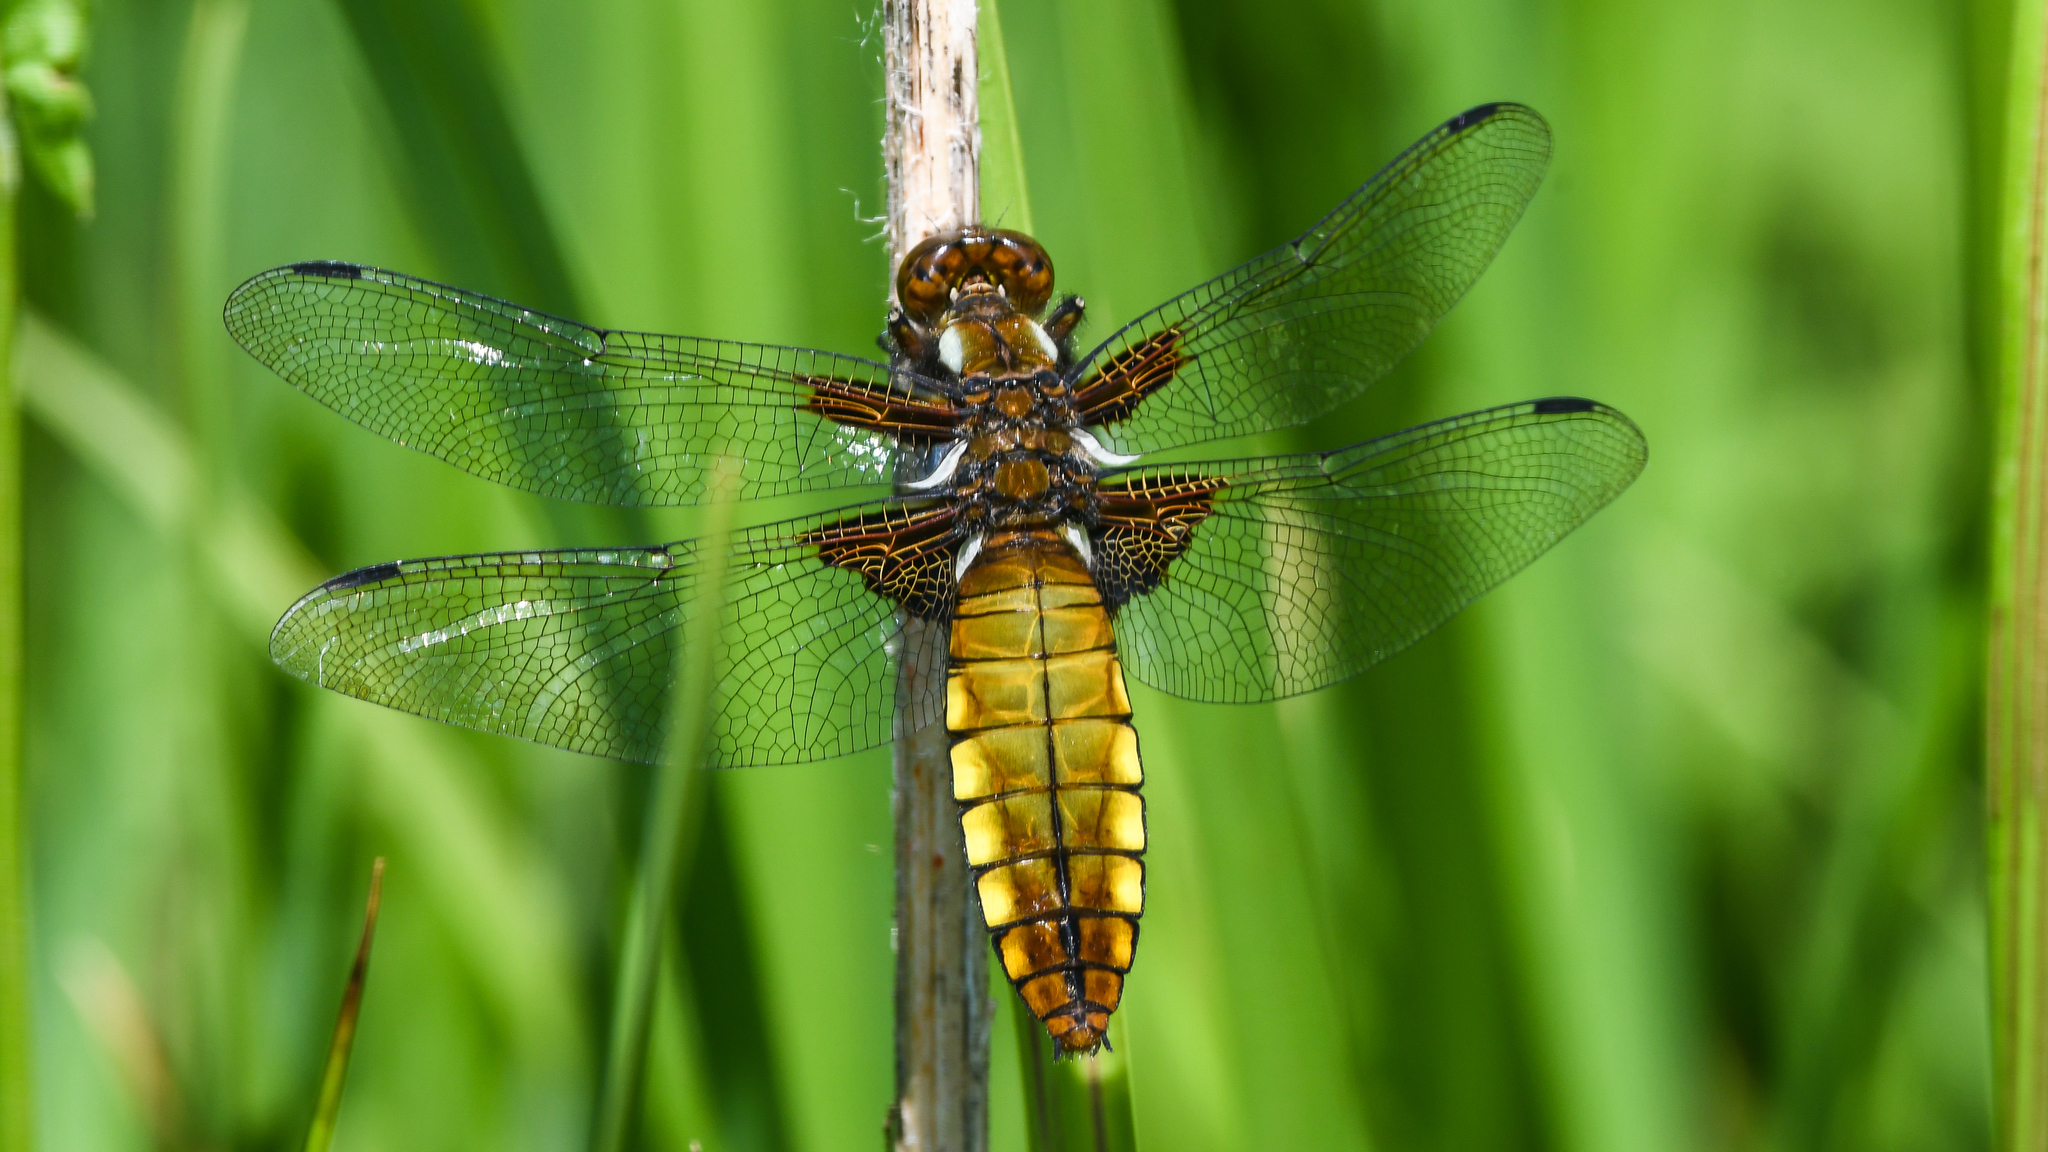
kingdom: Animalia
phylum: Arthropoda
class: Insecta
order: Odonata
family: Libellulidae
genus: Libellula
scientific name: Libellula depressa
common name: Broad-bodied chaser
